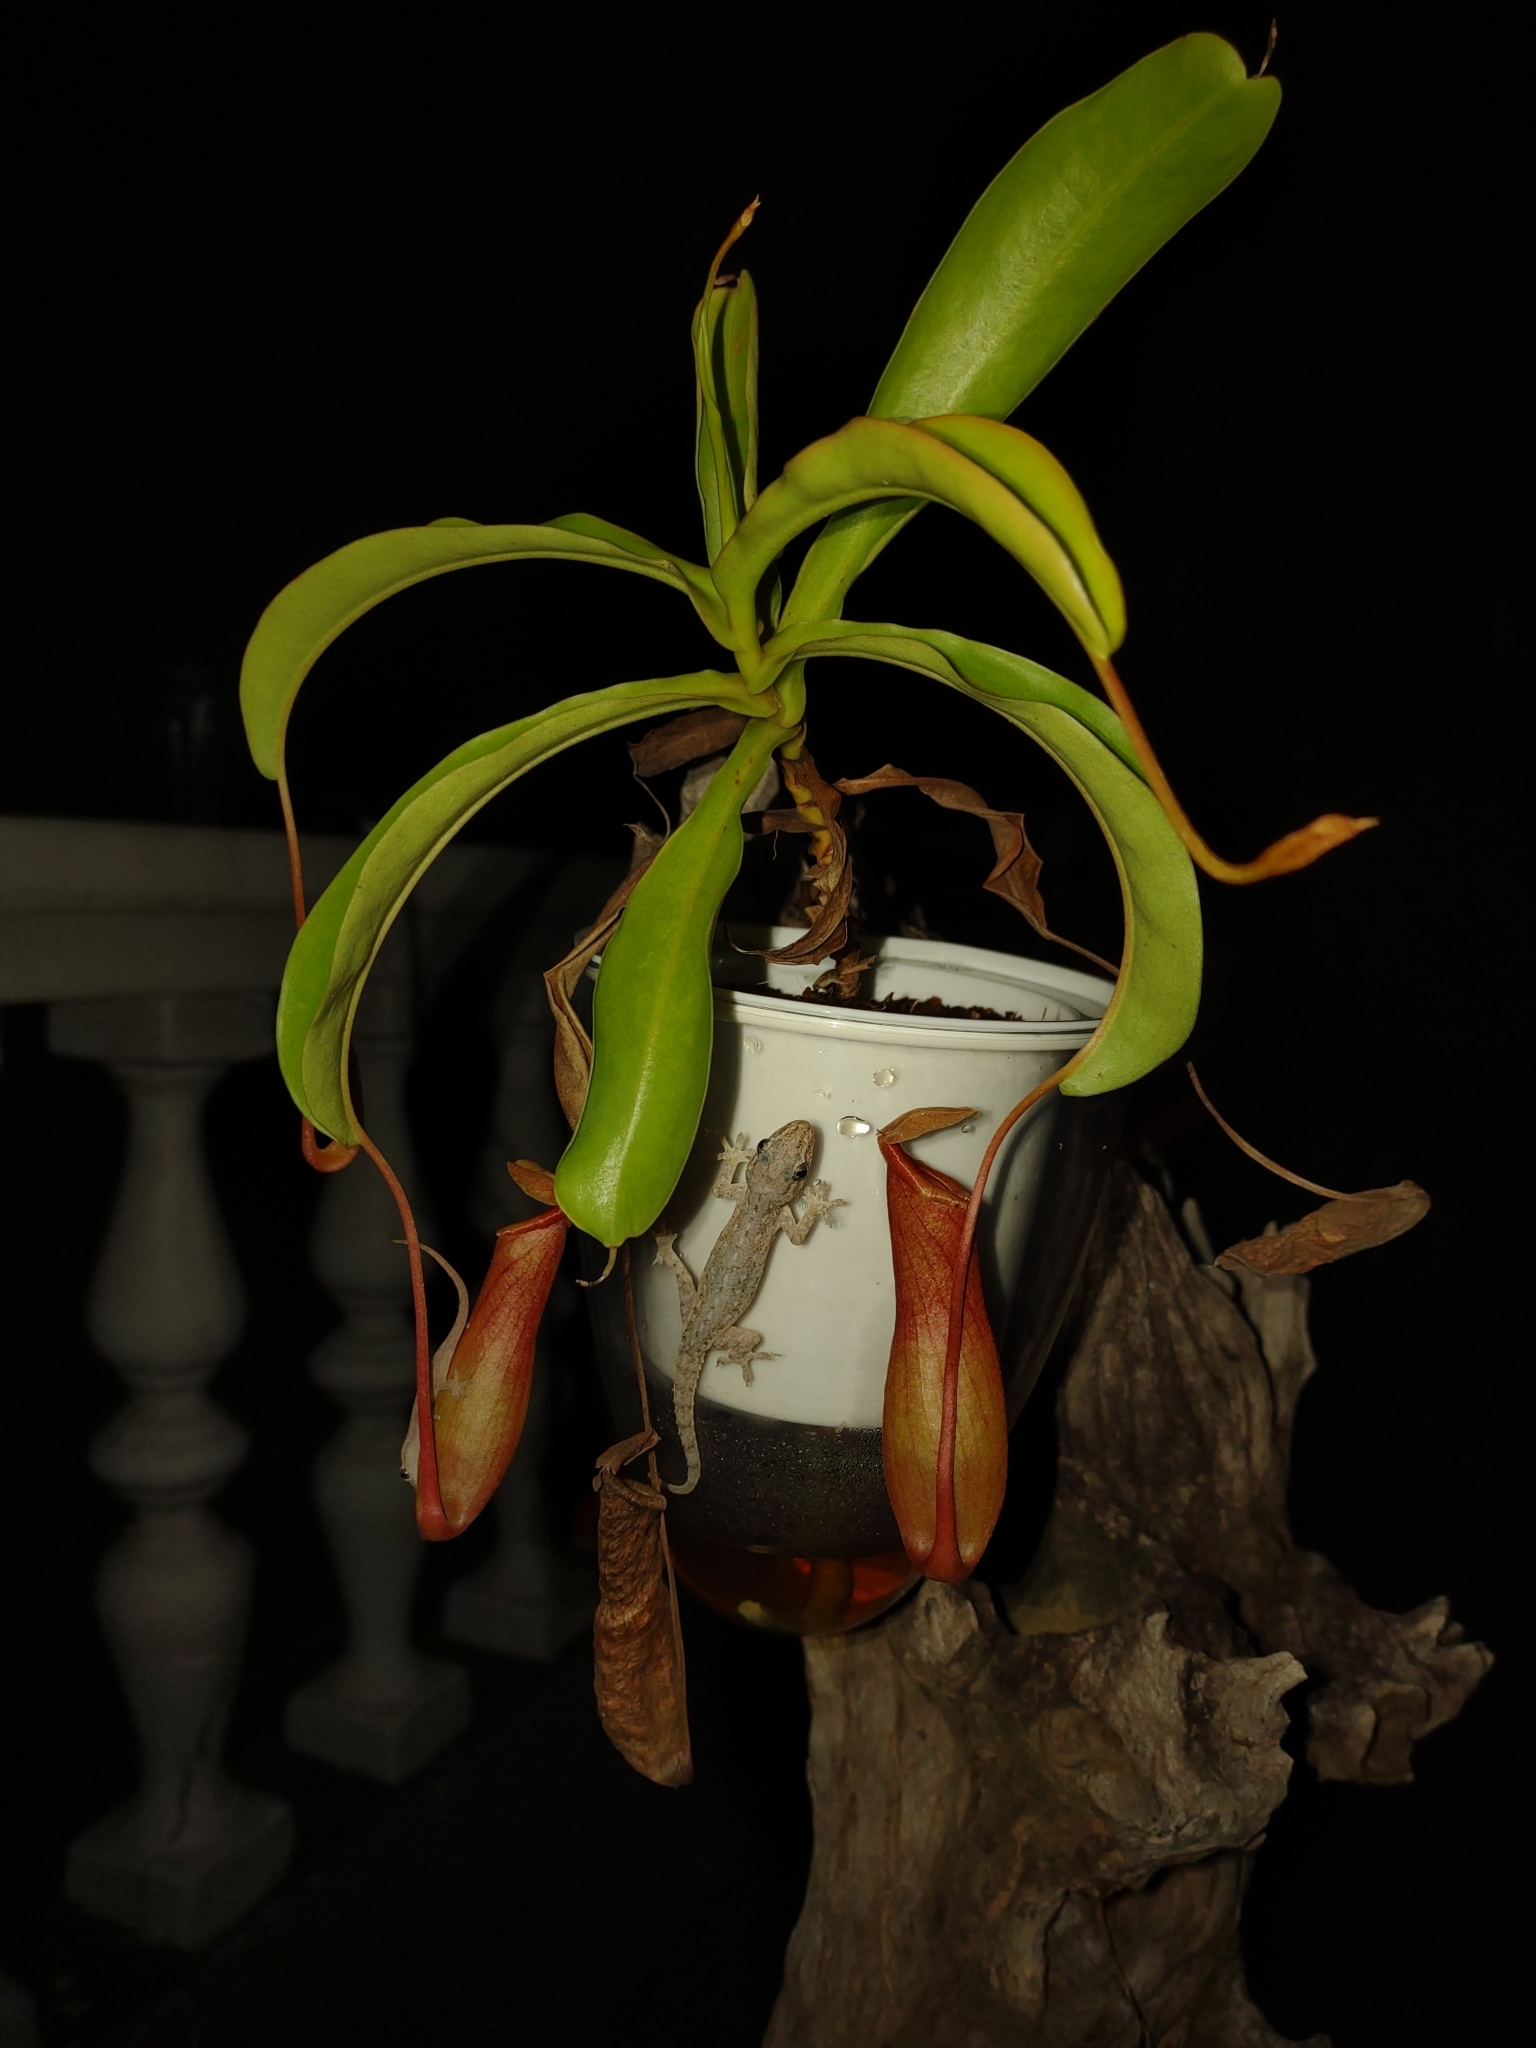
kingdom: Animalia
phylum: Chordata
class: Squamata
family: Gekkonidae
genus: Hemidactylus
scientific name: Hemidactylus frenatus
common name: Common house gecko
